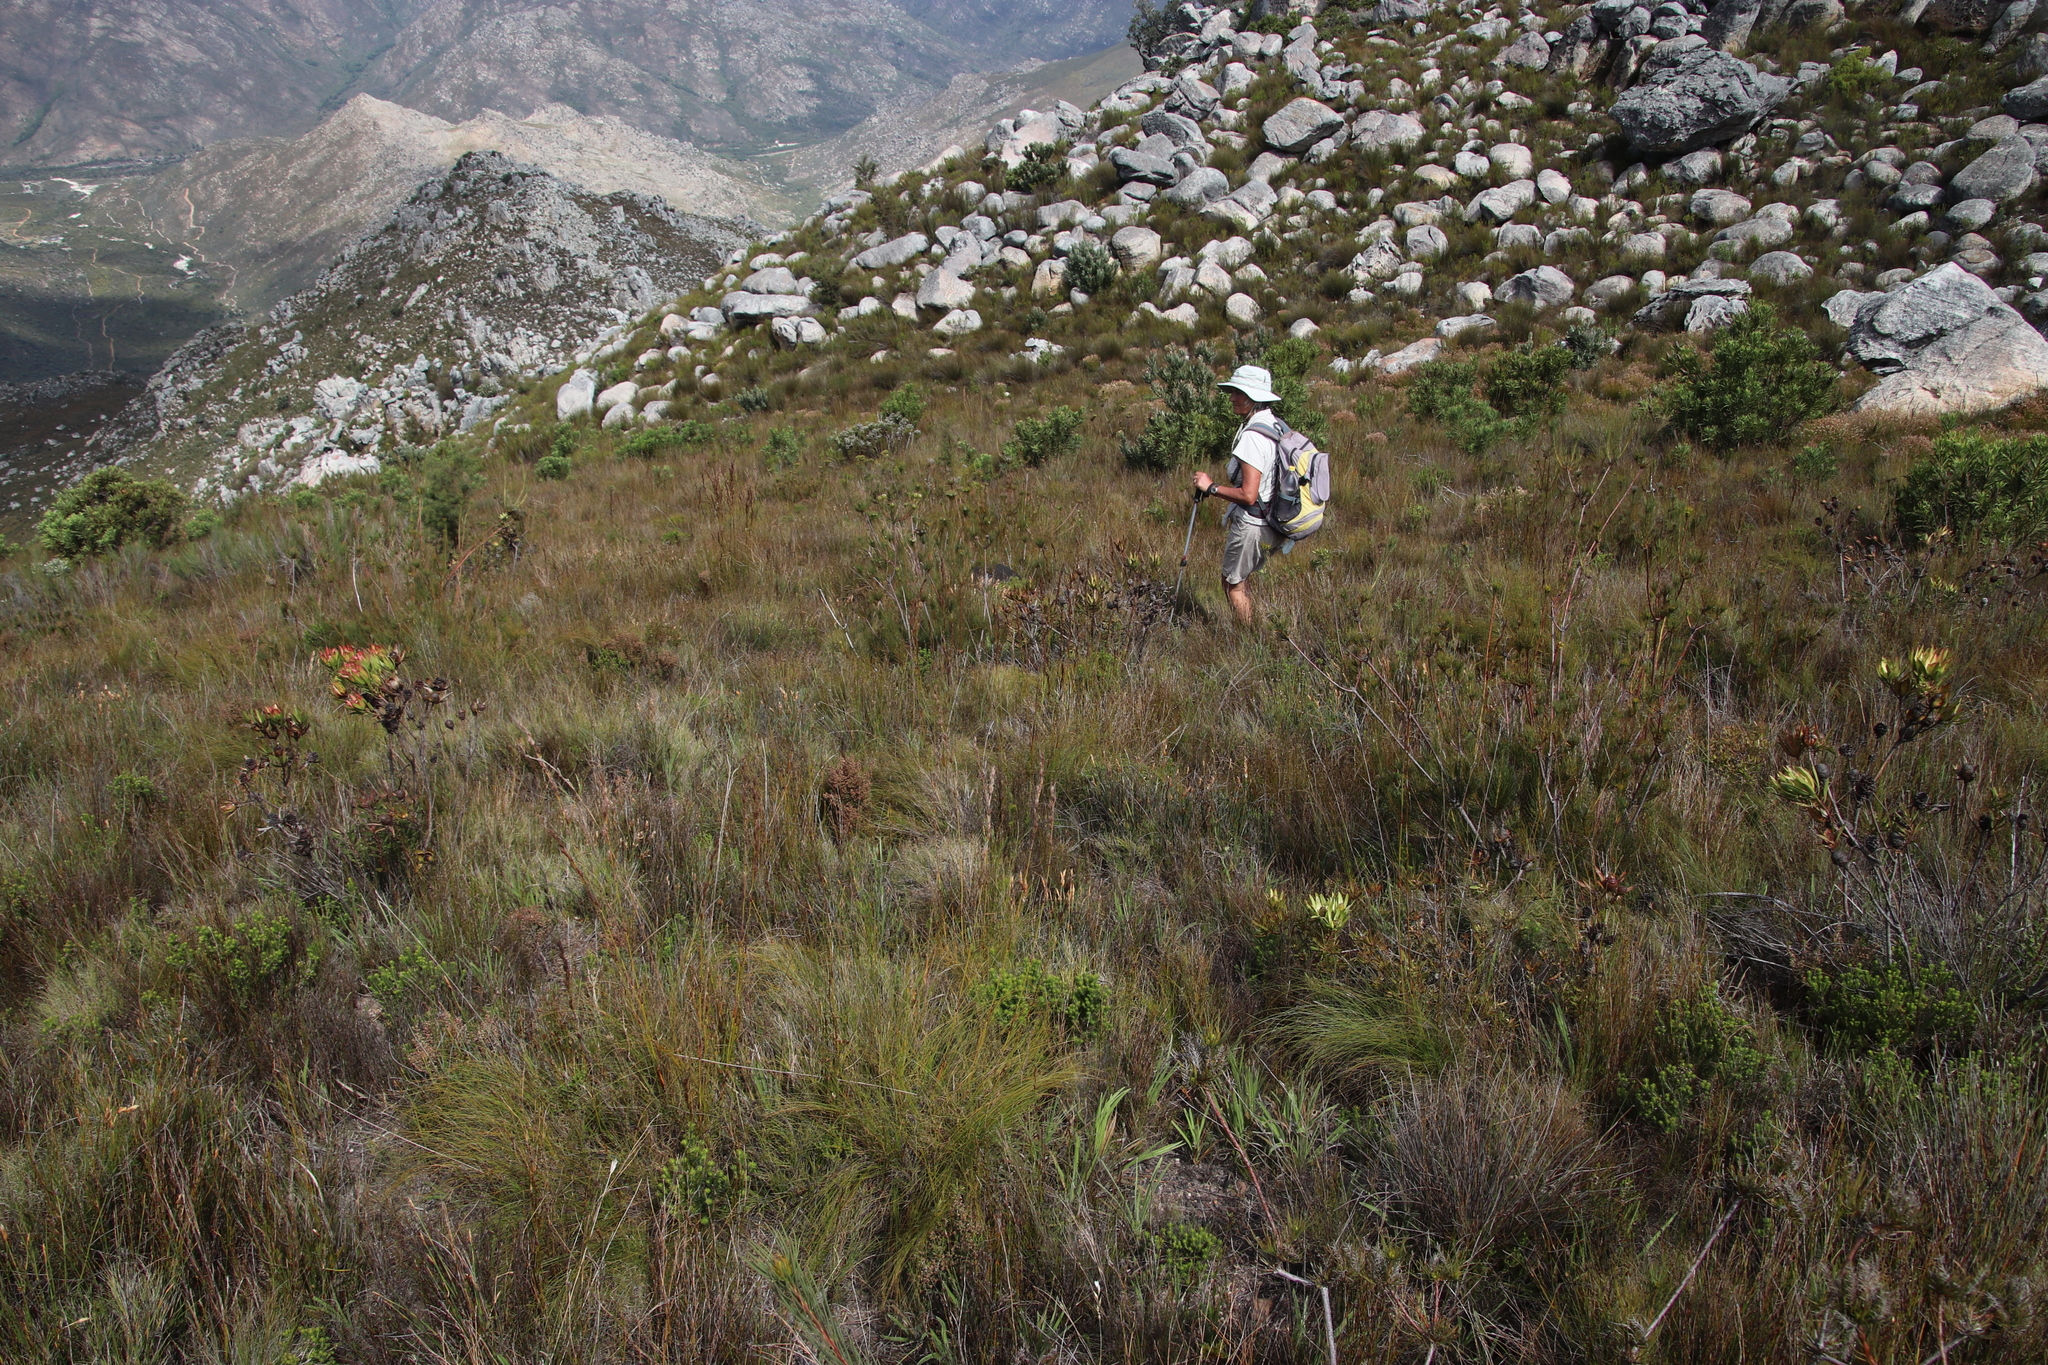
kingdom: Plantae
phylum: Tracheophyta
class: Magnoliopsida
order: Proteales
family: Proteaceae
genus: Leucadendron
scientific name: Leucadendron spissifolium
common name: Spear-leaf conebush
